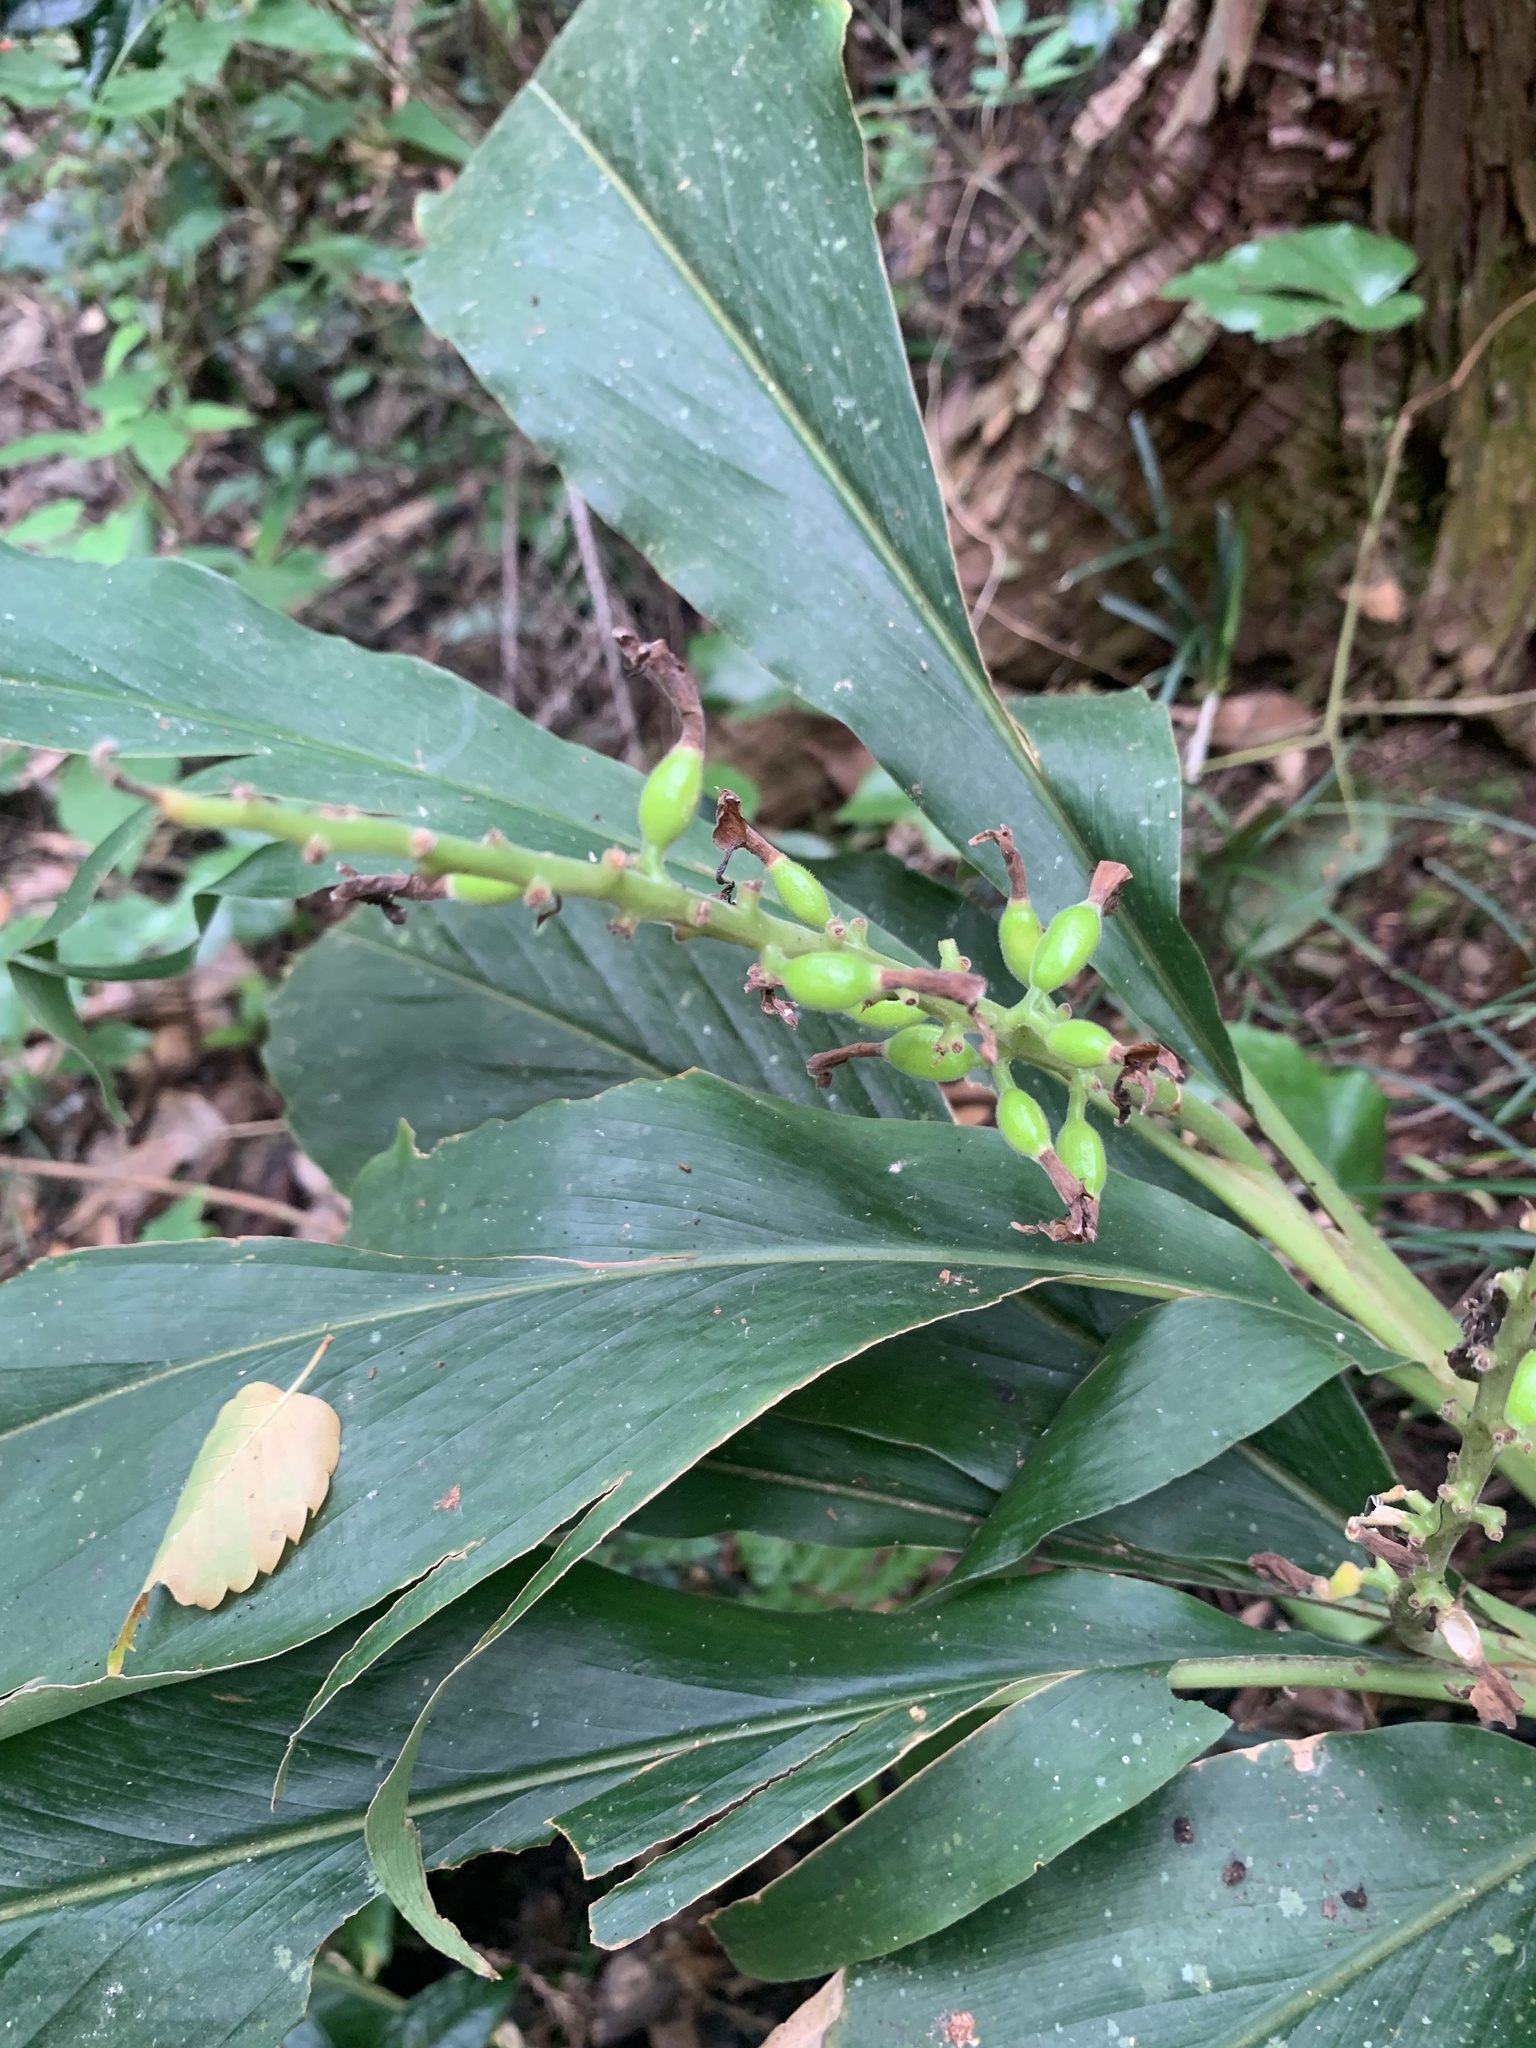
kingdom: Plantae
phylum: Tracheophyta
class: Liliopsida
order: Zingiberales
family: Zingiberaceae
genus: Alpinia
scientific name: Alpinia japonica
